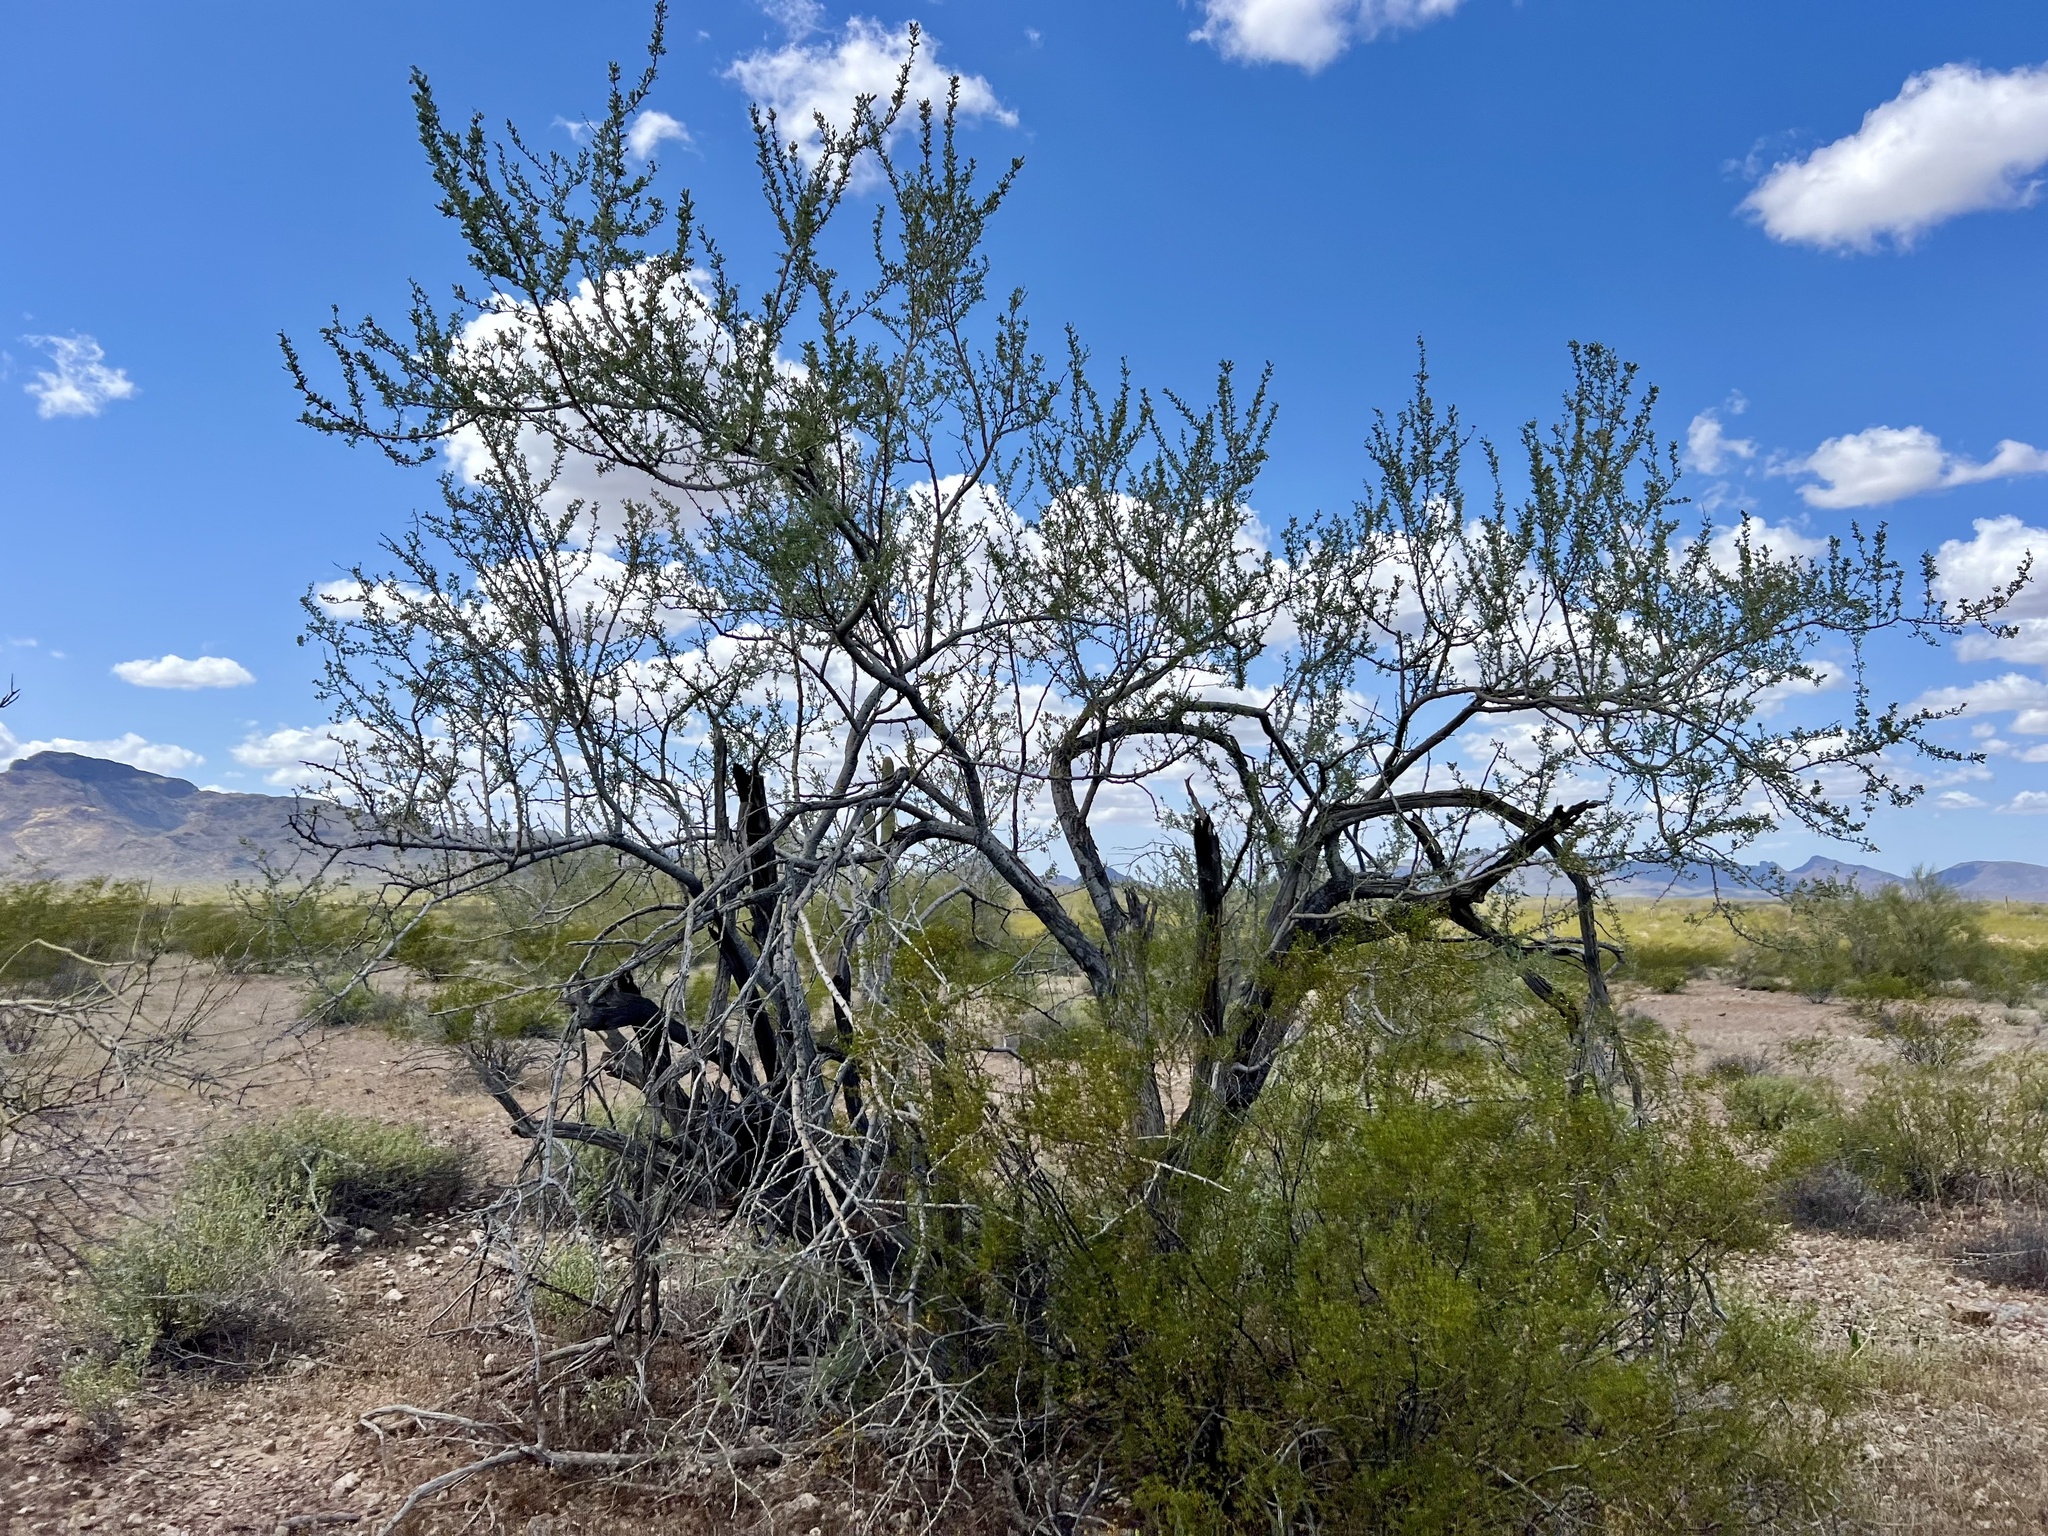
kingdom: Plantae
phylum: Tracheophyta
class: Magnoliopsida
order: Fabales
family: Fabaceae
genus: Olneya
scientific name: Olneya tesota
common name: Desert ironwood
